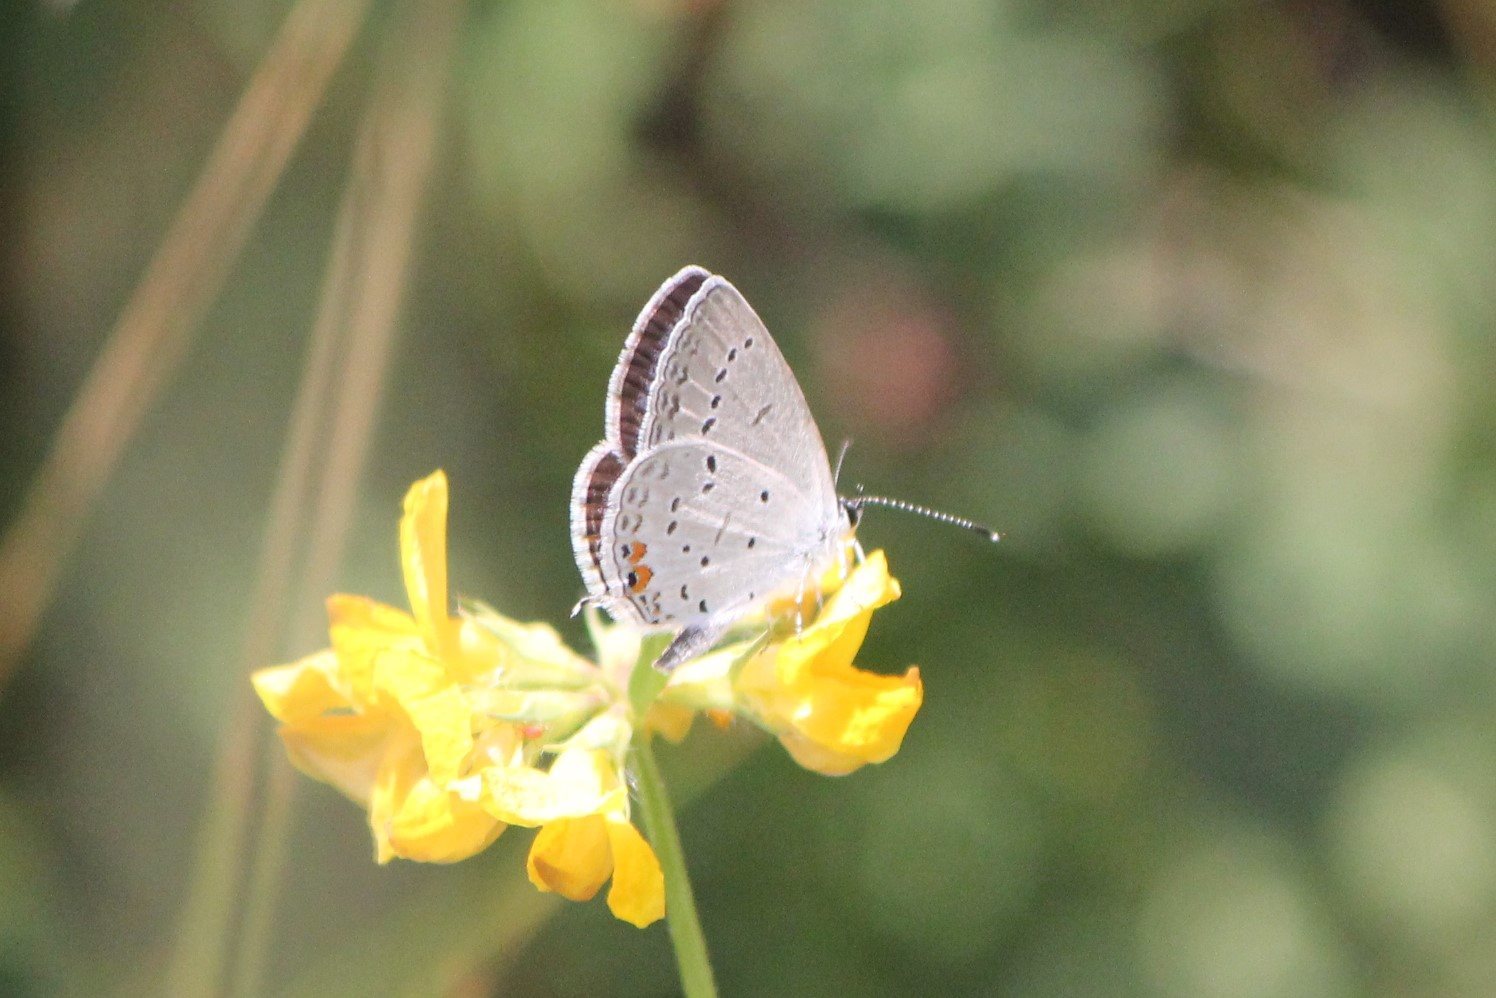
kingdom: Animalia
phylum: Arthropoda
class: Insecta
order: Lepidoptera
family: Lycaenidae
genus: Elkalyce
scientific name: Elkalyce comyntas
